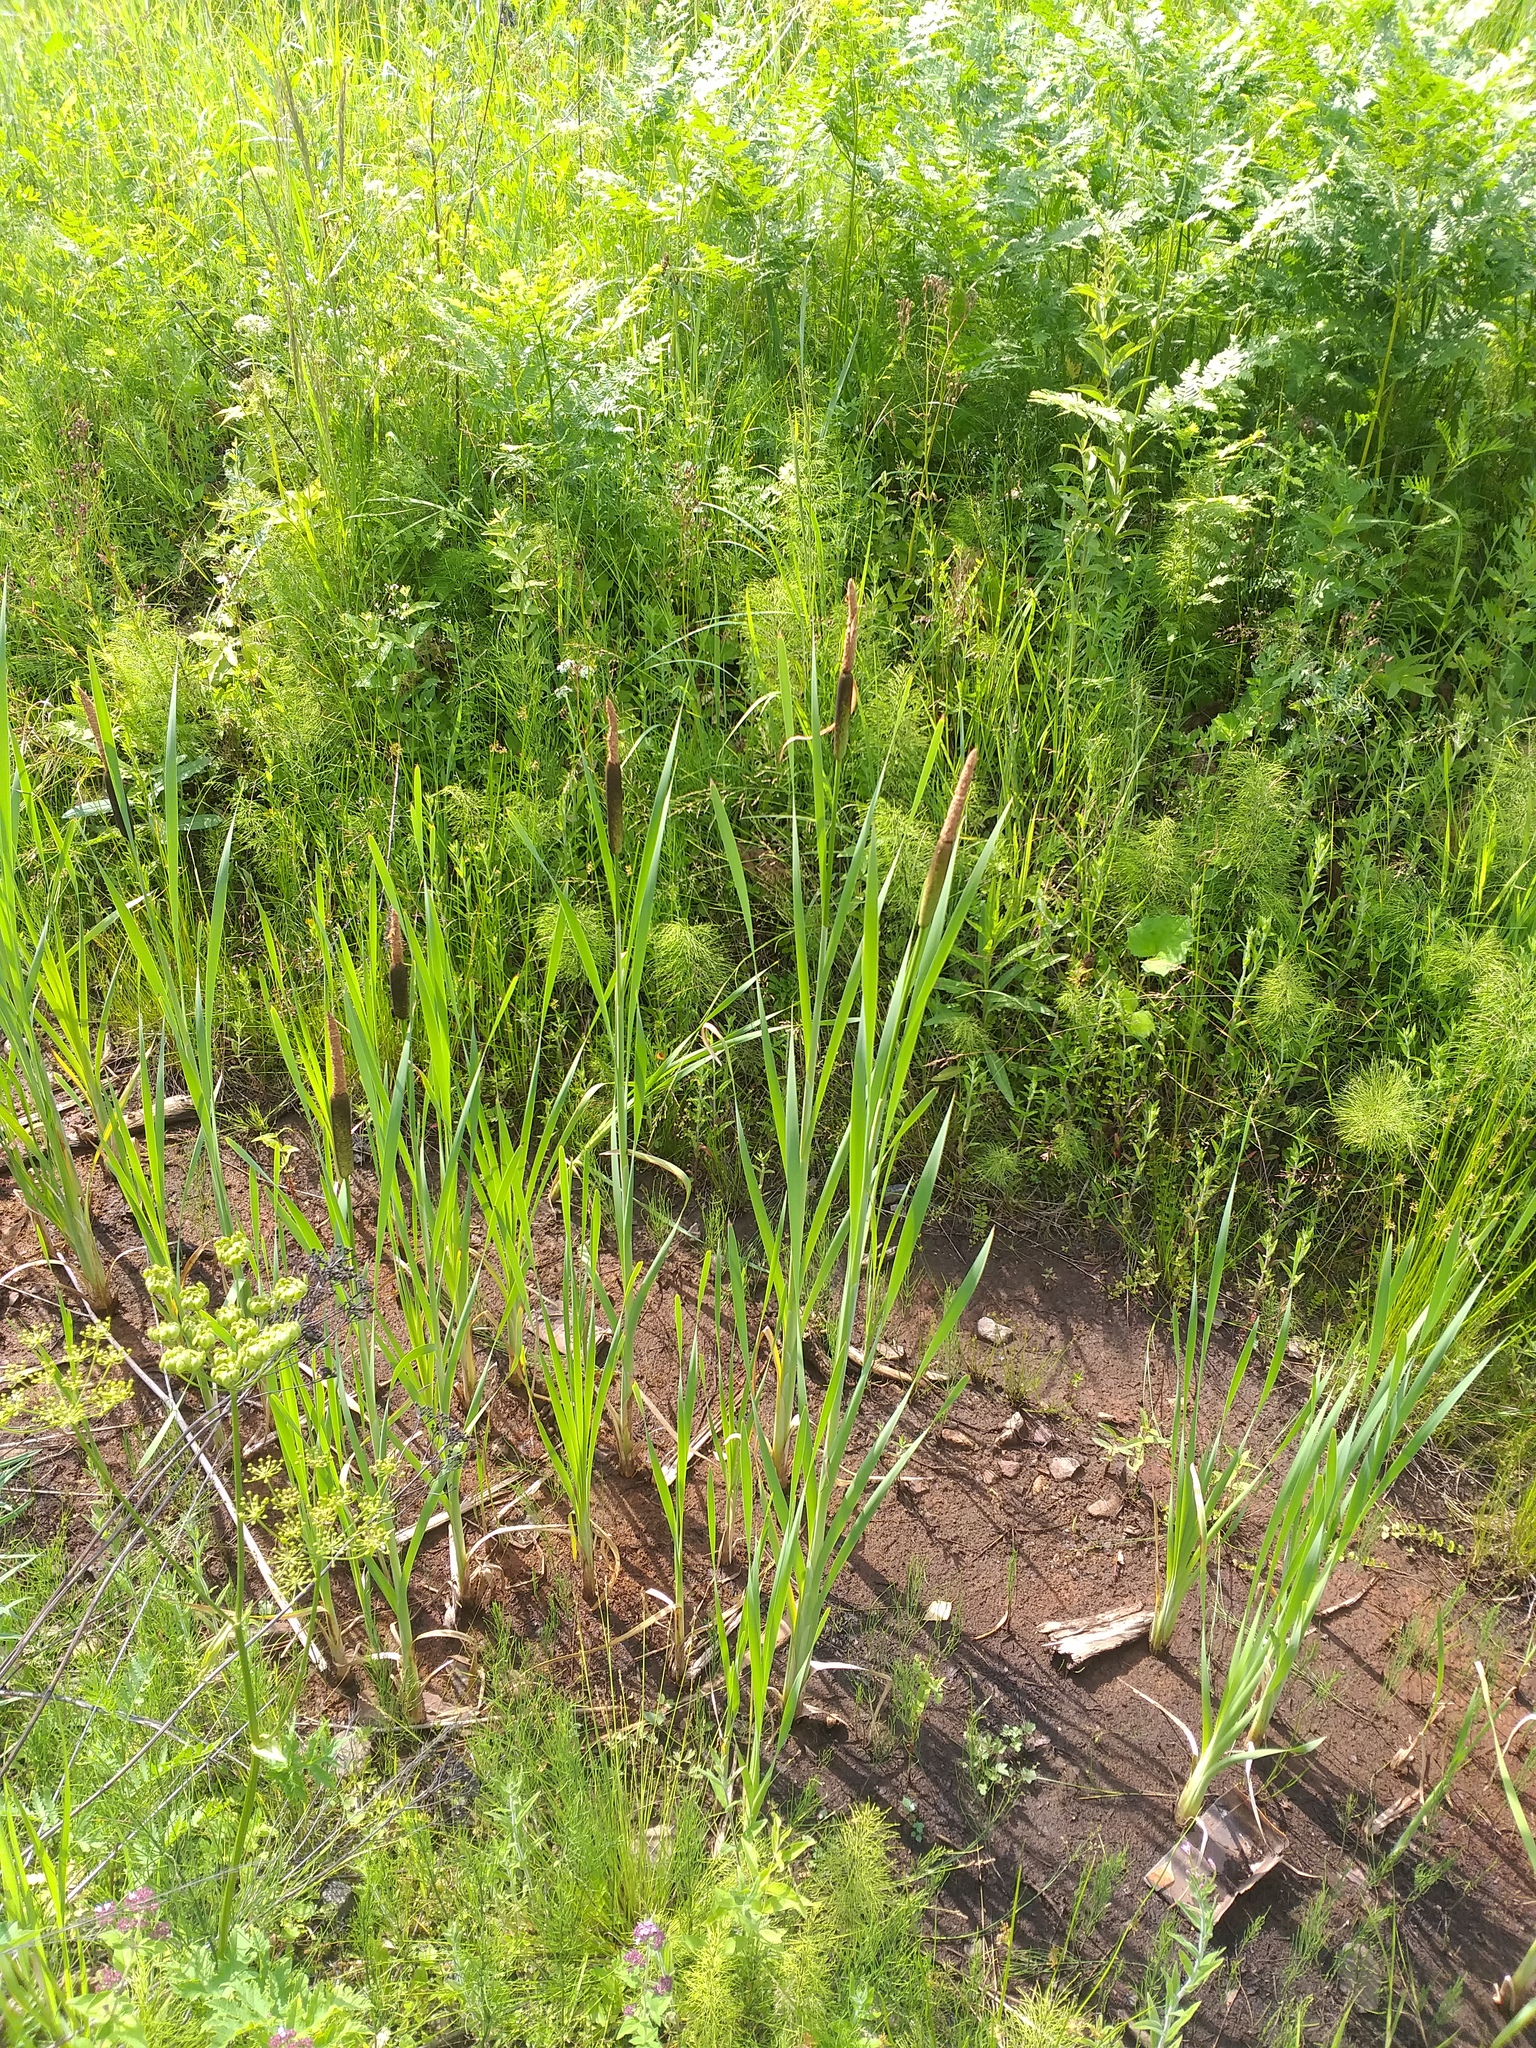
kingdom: Plantae
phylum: Tracheophyta
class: Liliopsida
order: Poales
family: Typhaceae
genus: Typha
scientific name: Typha latifolia
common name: Broadleaf cattail
